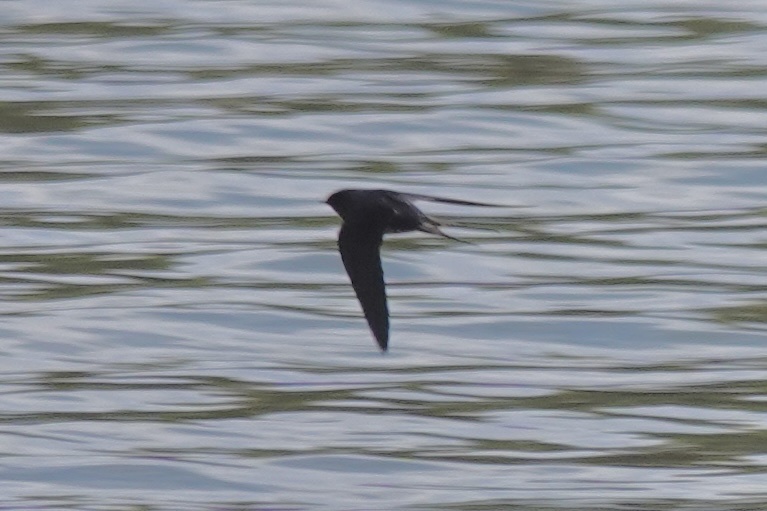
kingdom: Animalia
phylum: Chordata
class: Aves
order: Passeriformes
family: Hirundinidae
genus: Hirundo
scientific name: Hirundo rustica
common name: Barn swallow
